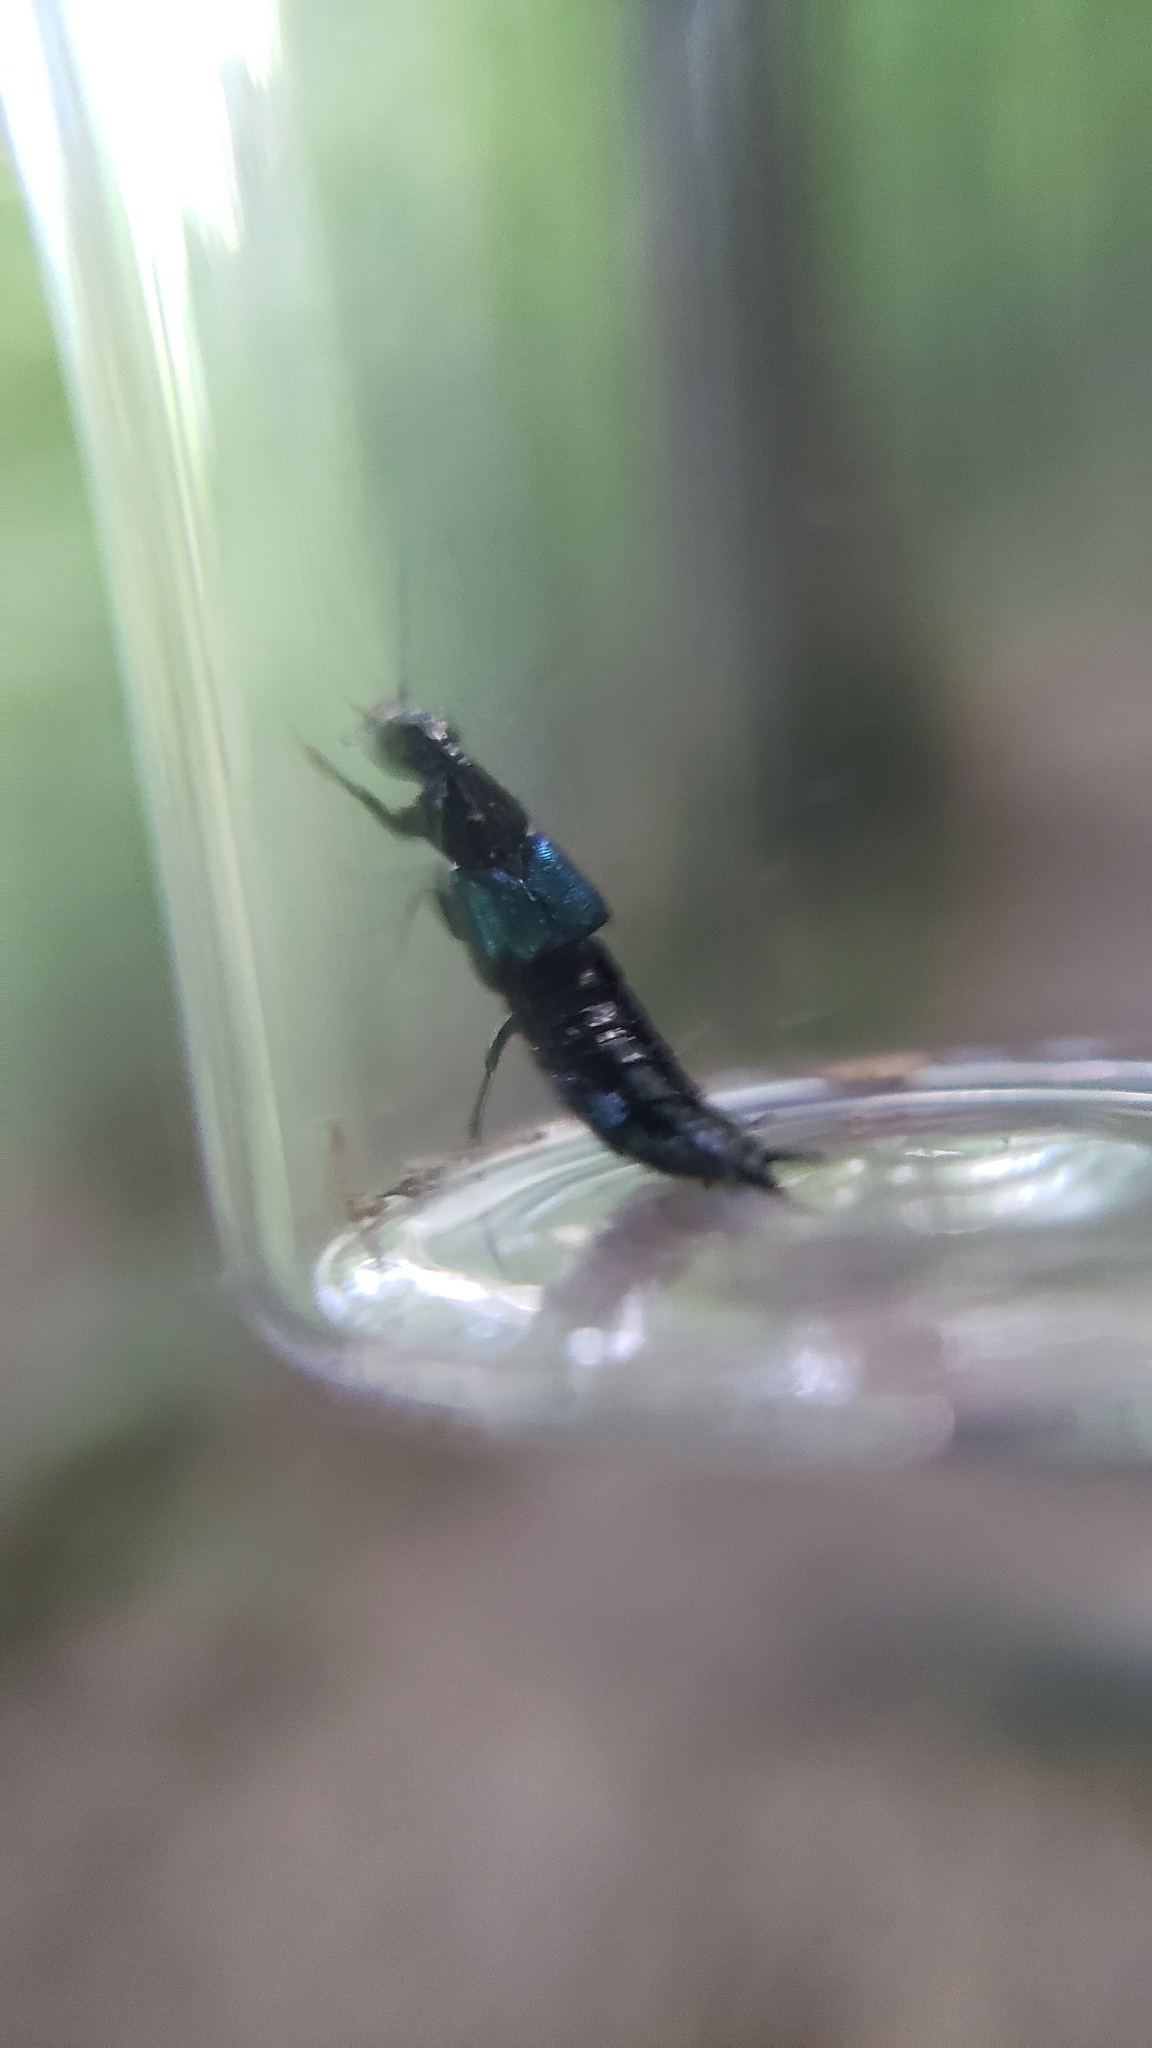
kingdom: Animalia
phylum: Arthropoda
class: Insecta
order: Coleoptera
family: Staphylinidae
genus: Philonthus
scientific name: Philonthus caeruleipennis
